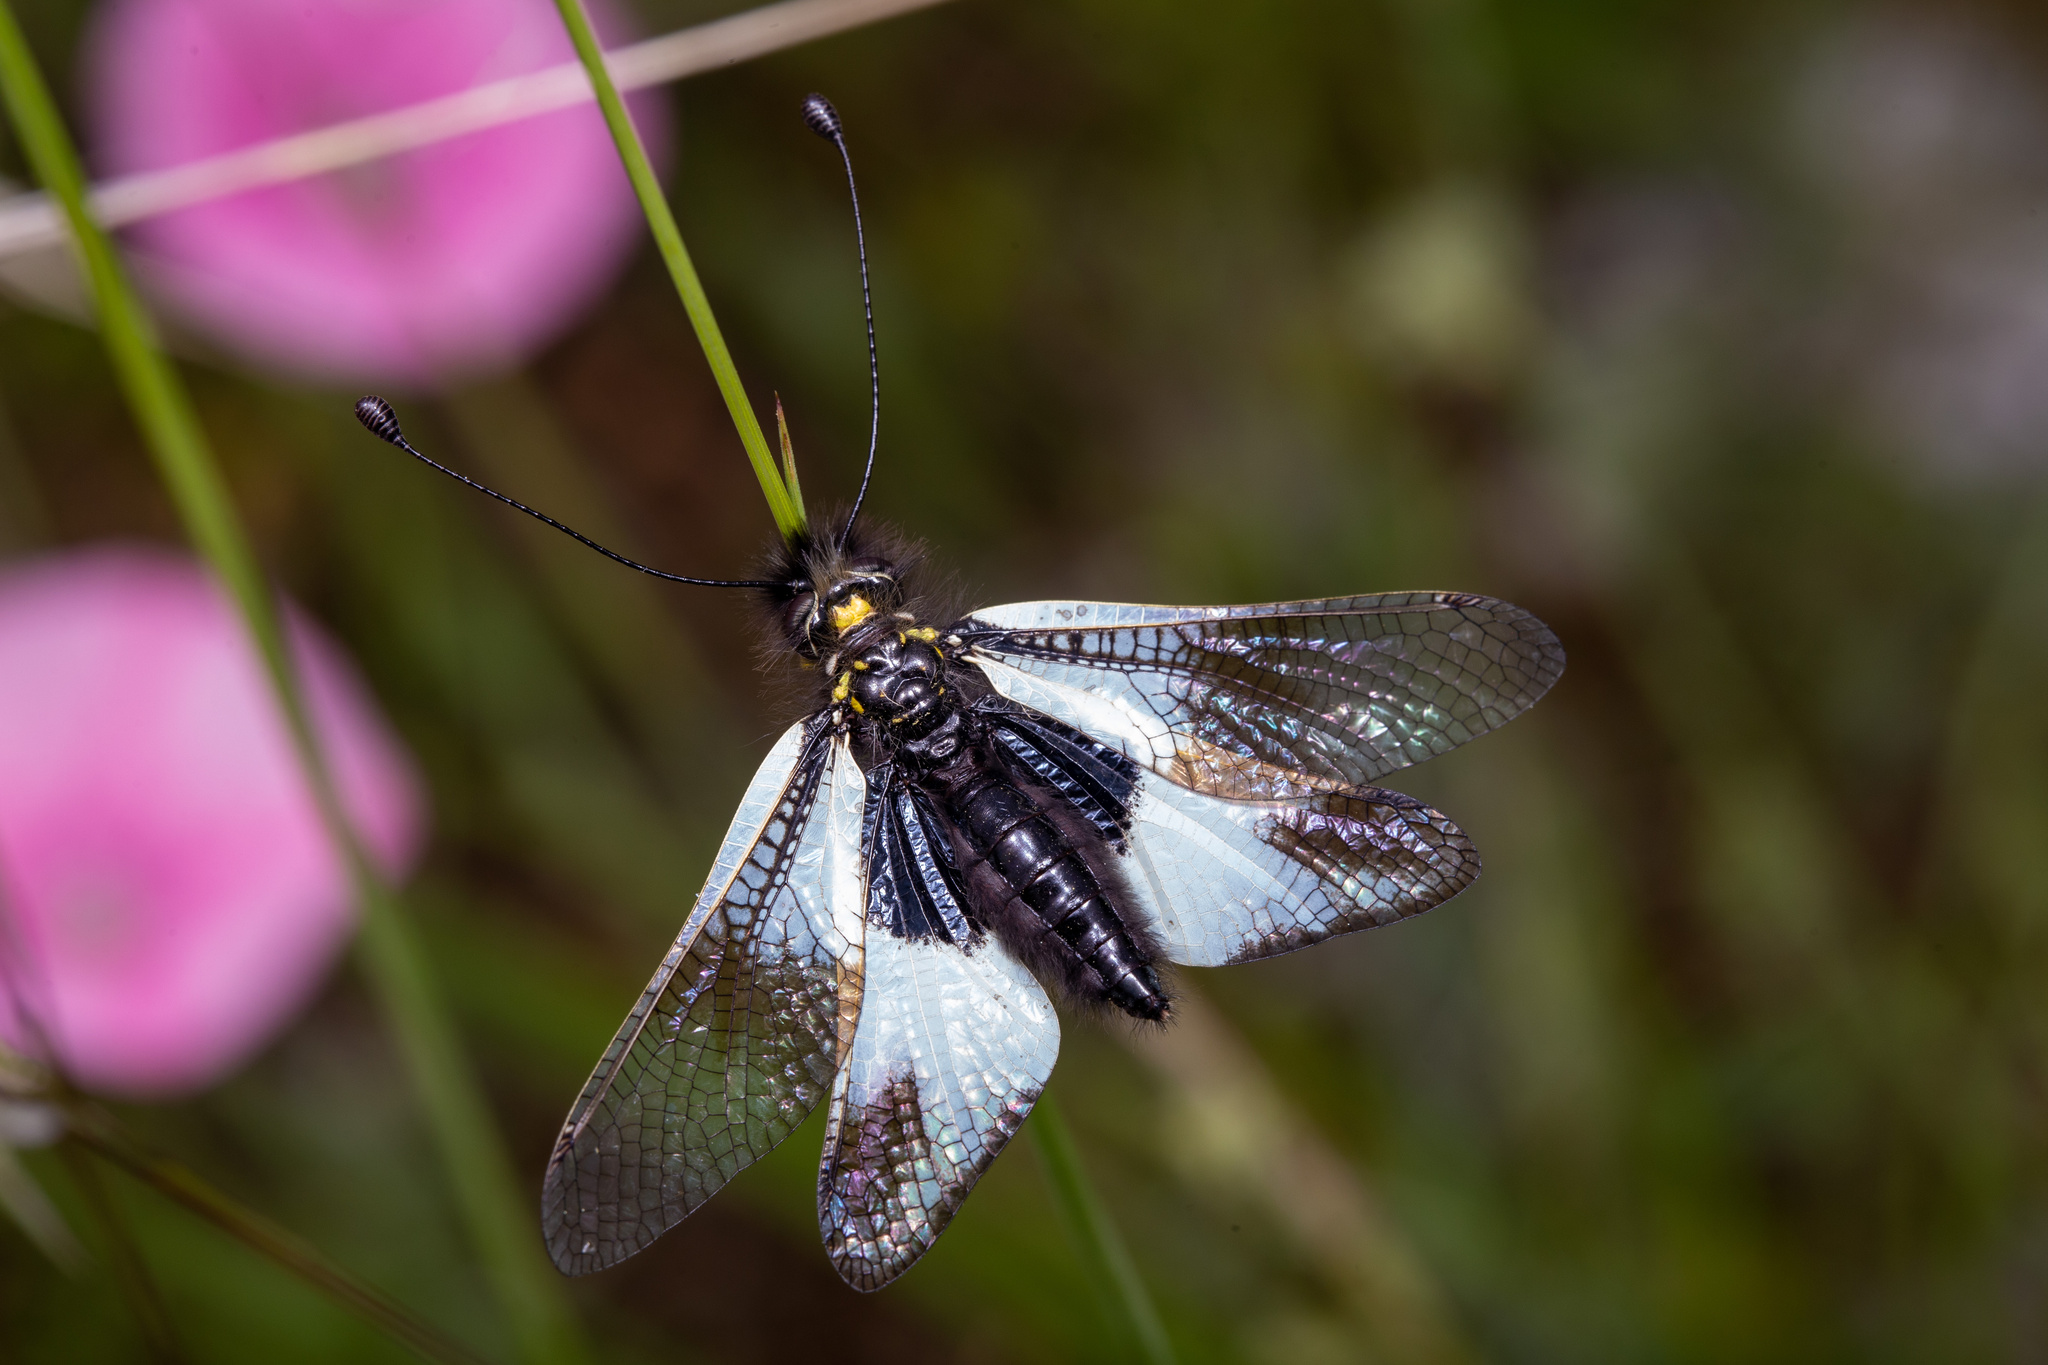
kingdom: Animalia
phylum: Arthropoda
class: Insecta
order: Neuroptera
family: Ascalaphidae
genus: Libelloides
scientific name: Libelloides lacteus
